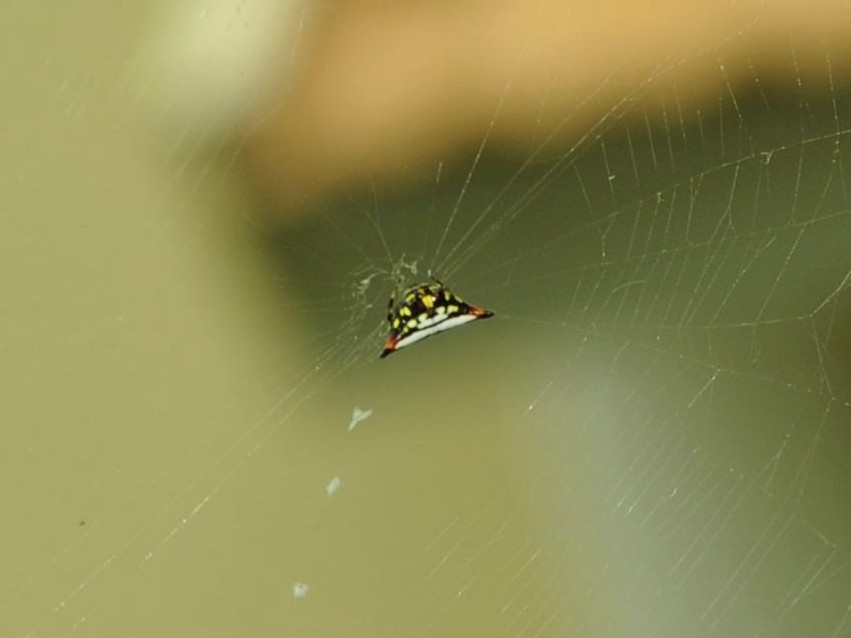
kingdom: Animalia
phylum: Arthropoda
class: Arachnida
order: Araneae
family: Araneidae
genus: Gasteracantha
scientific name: Gasteracantha geminata
